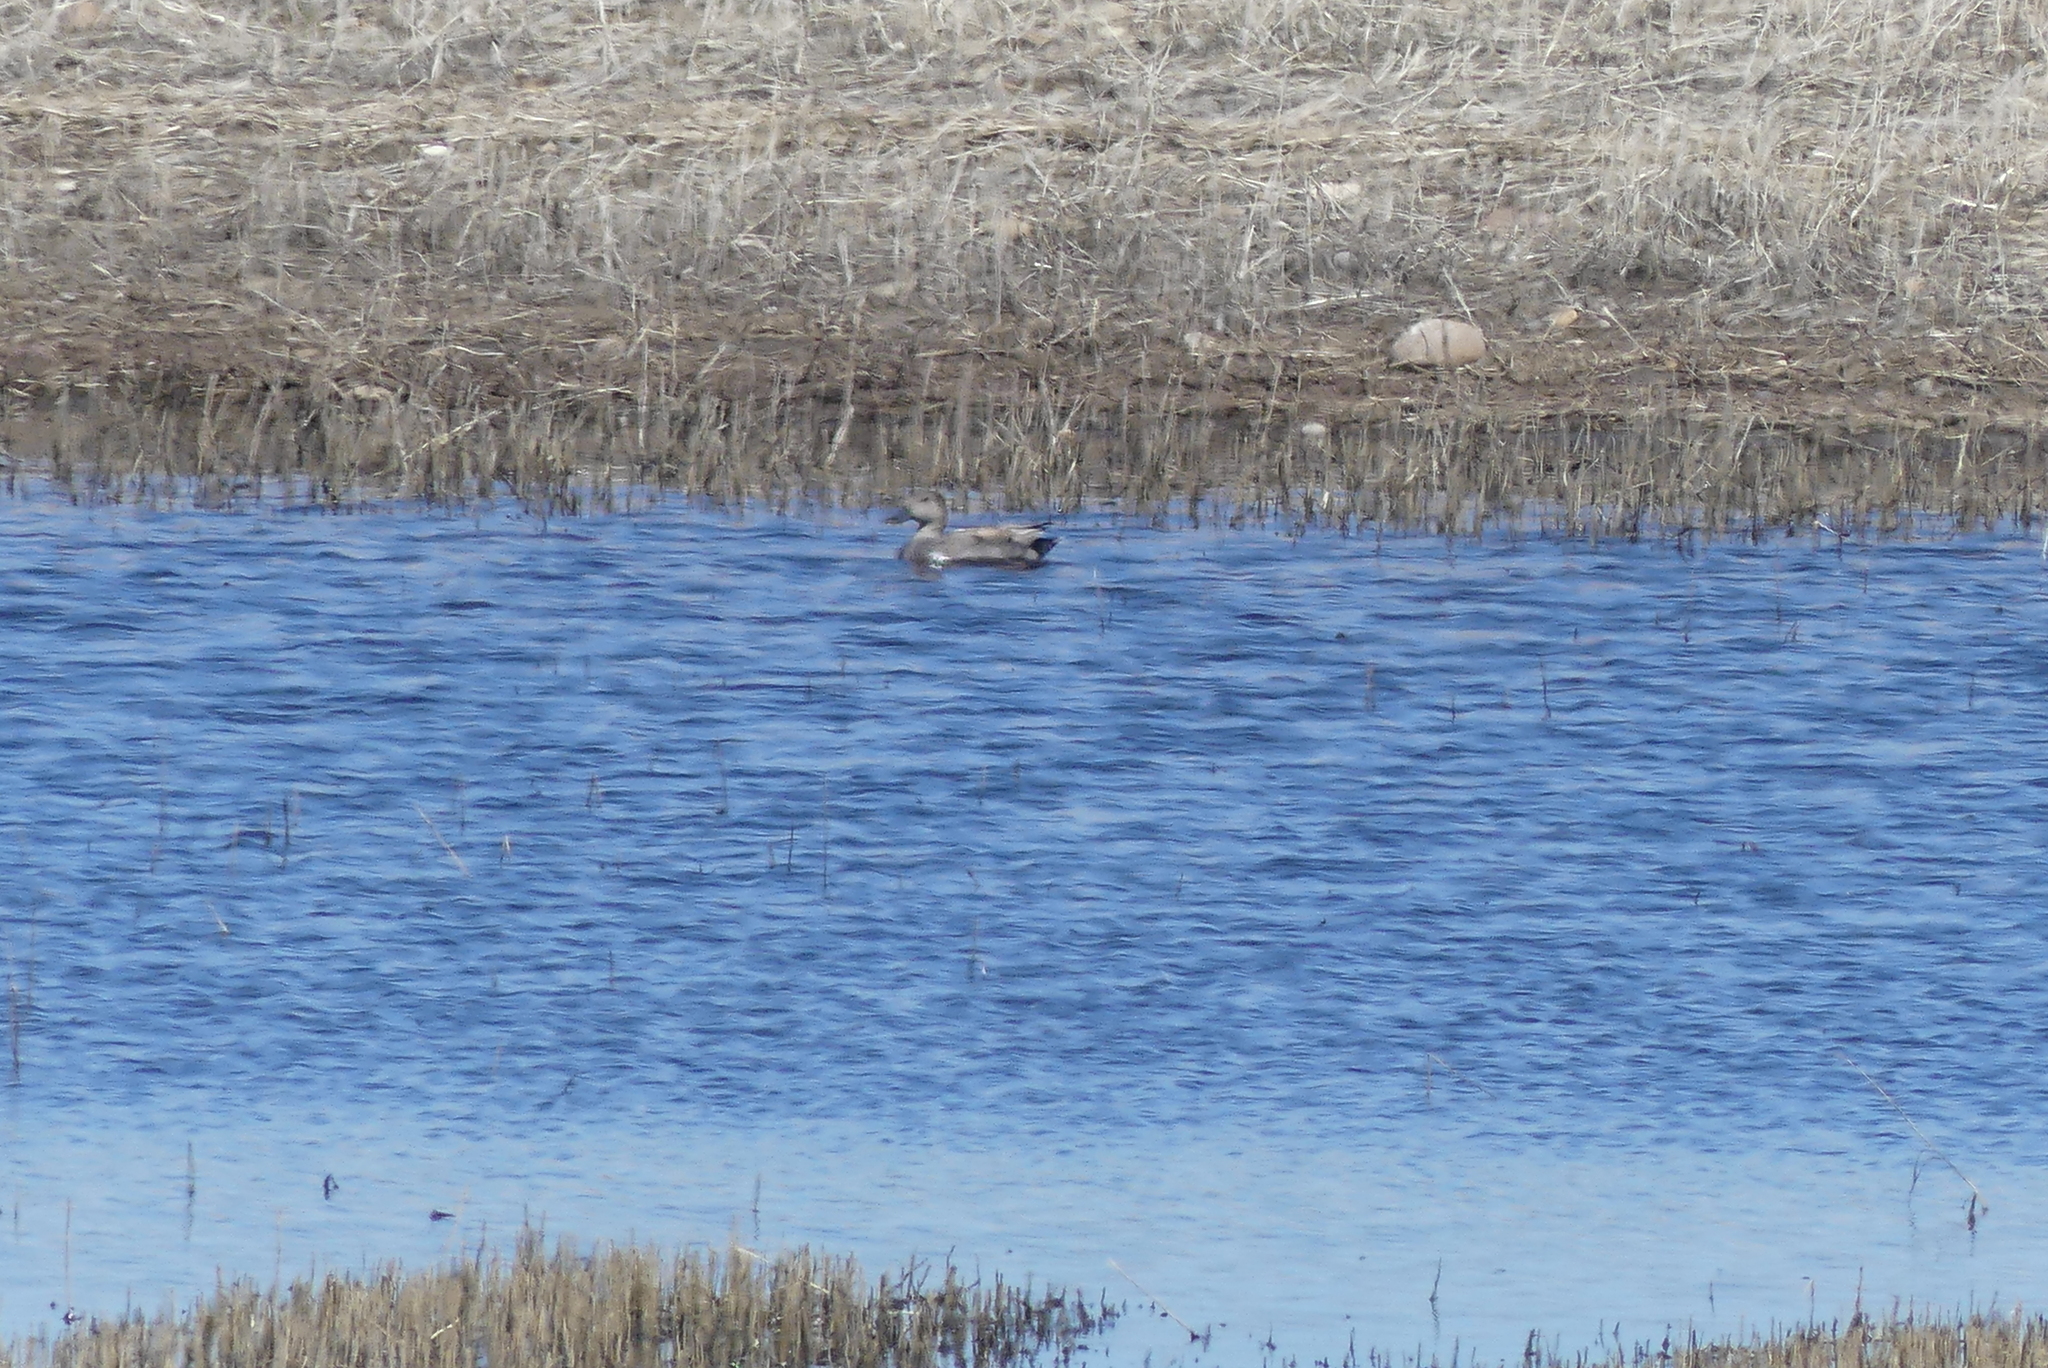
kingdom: Animalia
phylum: Chordata
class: Aves
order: Anseriformes
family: Anatidae
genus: Mareca
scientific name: Mareca strepera
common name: Gadwall
